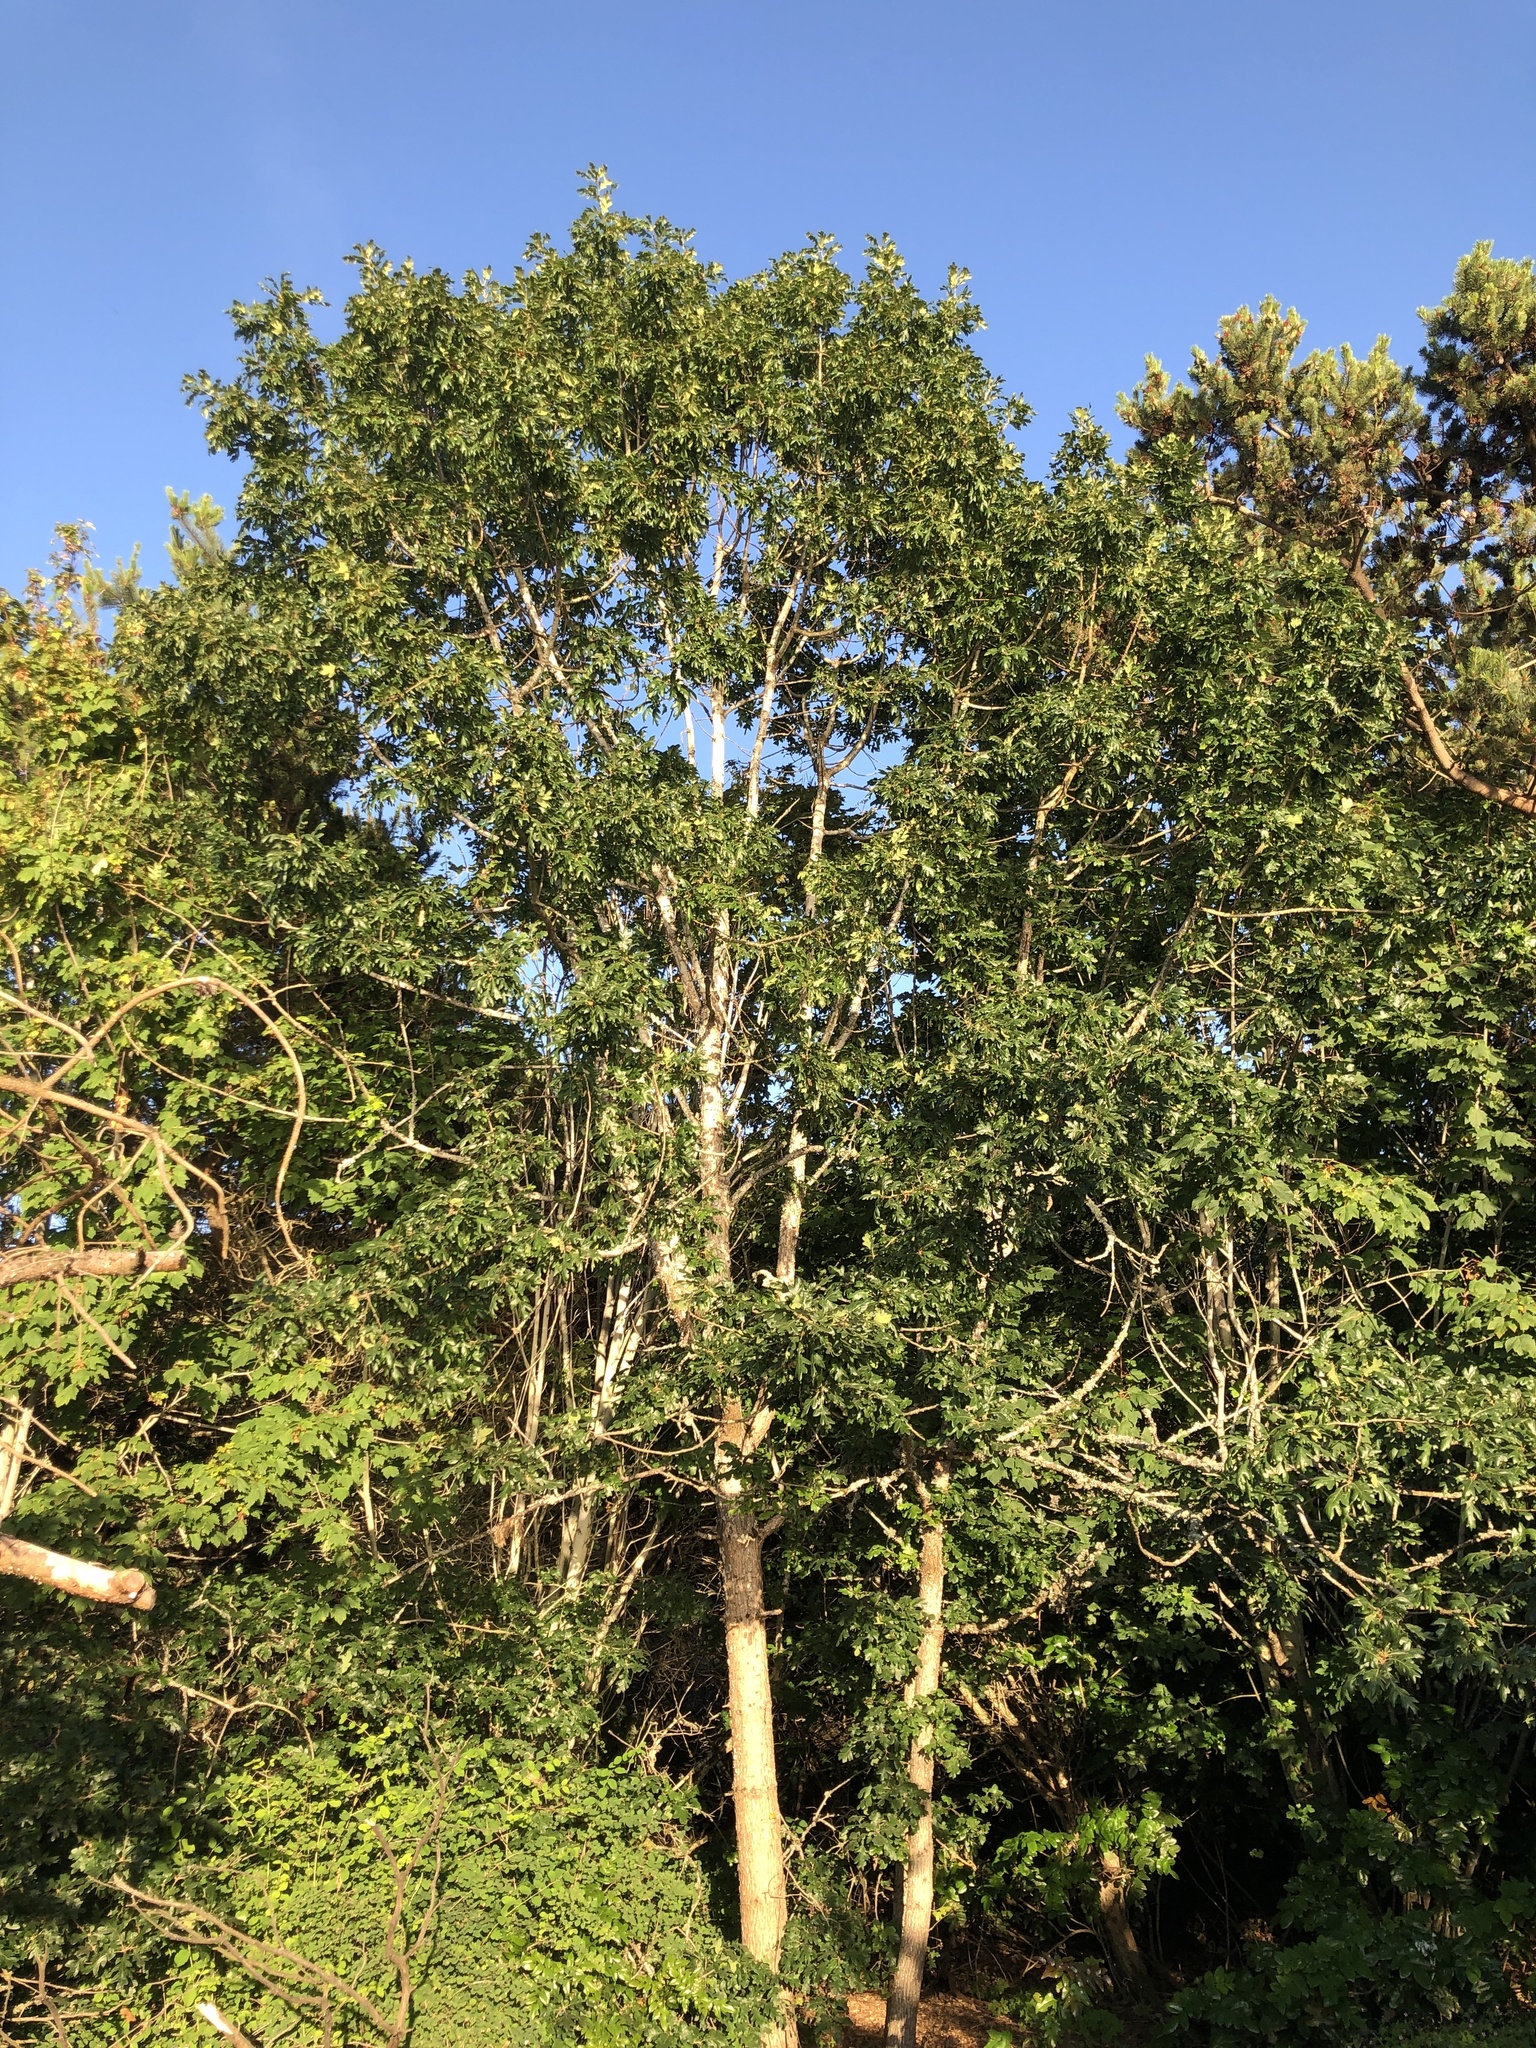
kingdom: Plantae
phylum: Tracheophyta
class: Magnoliopsida
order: Fagales
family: Fagaceae
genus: Quercus
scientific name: Quercus garryana
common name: Garry oak
